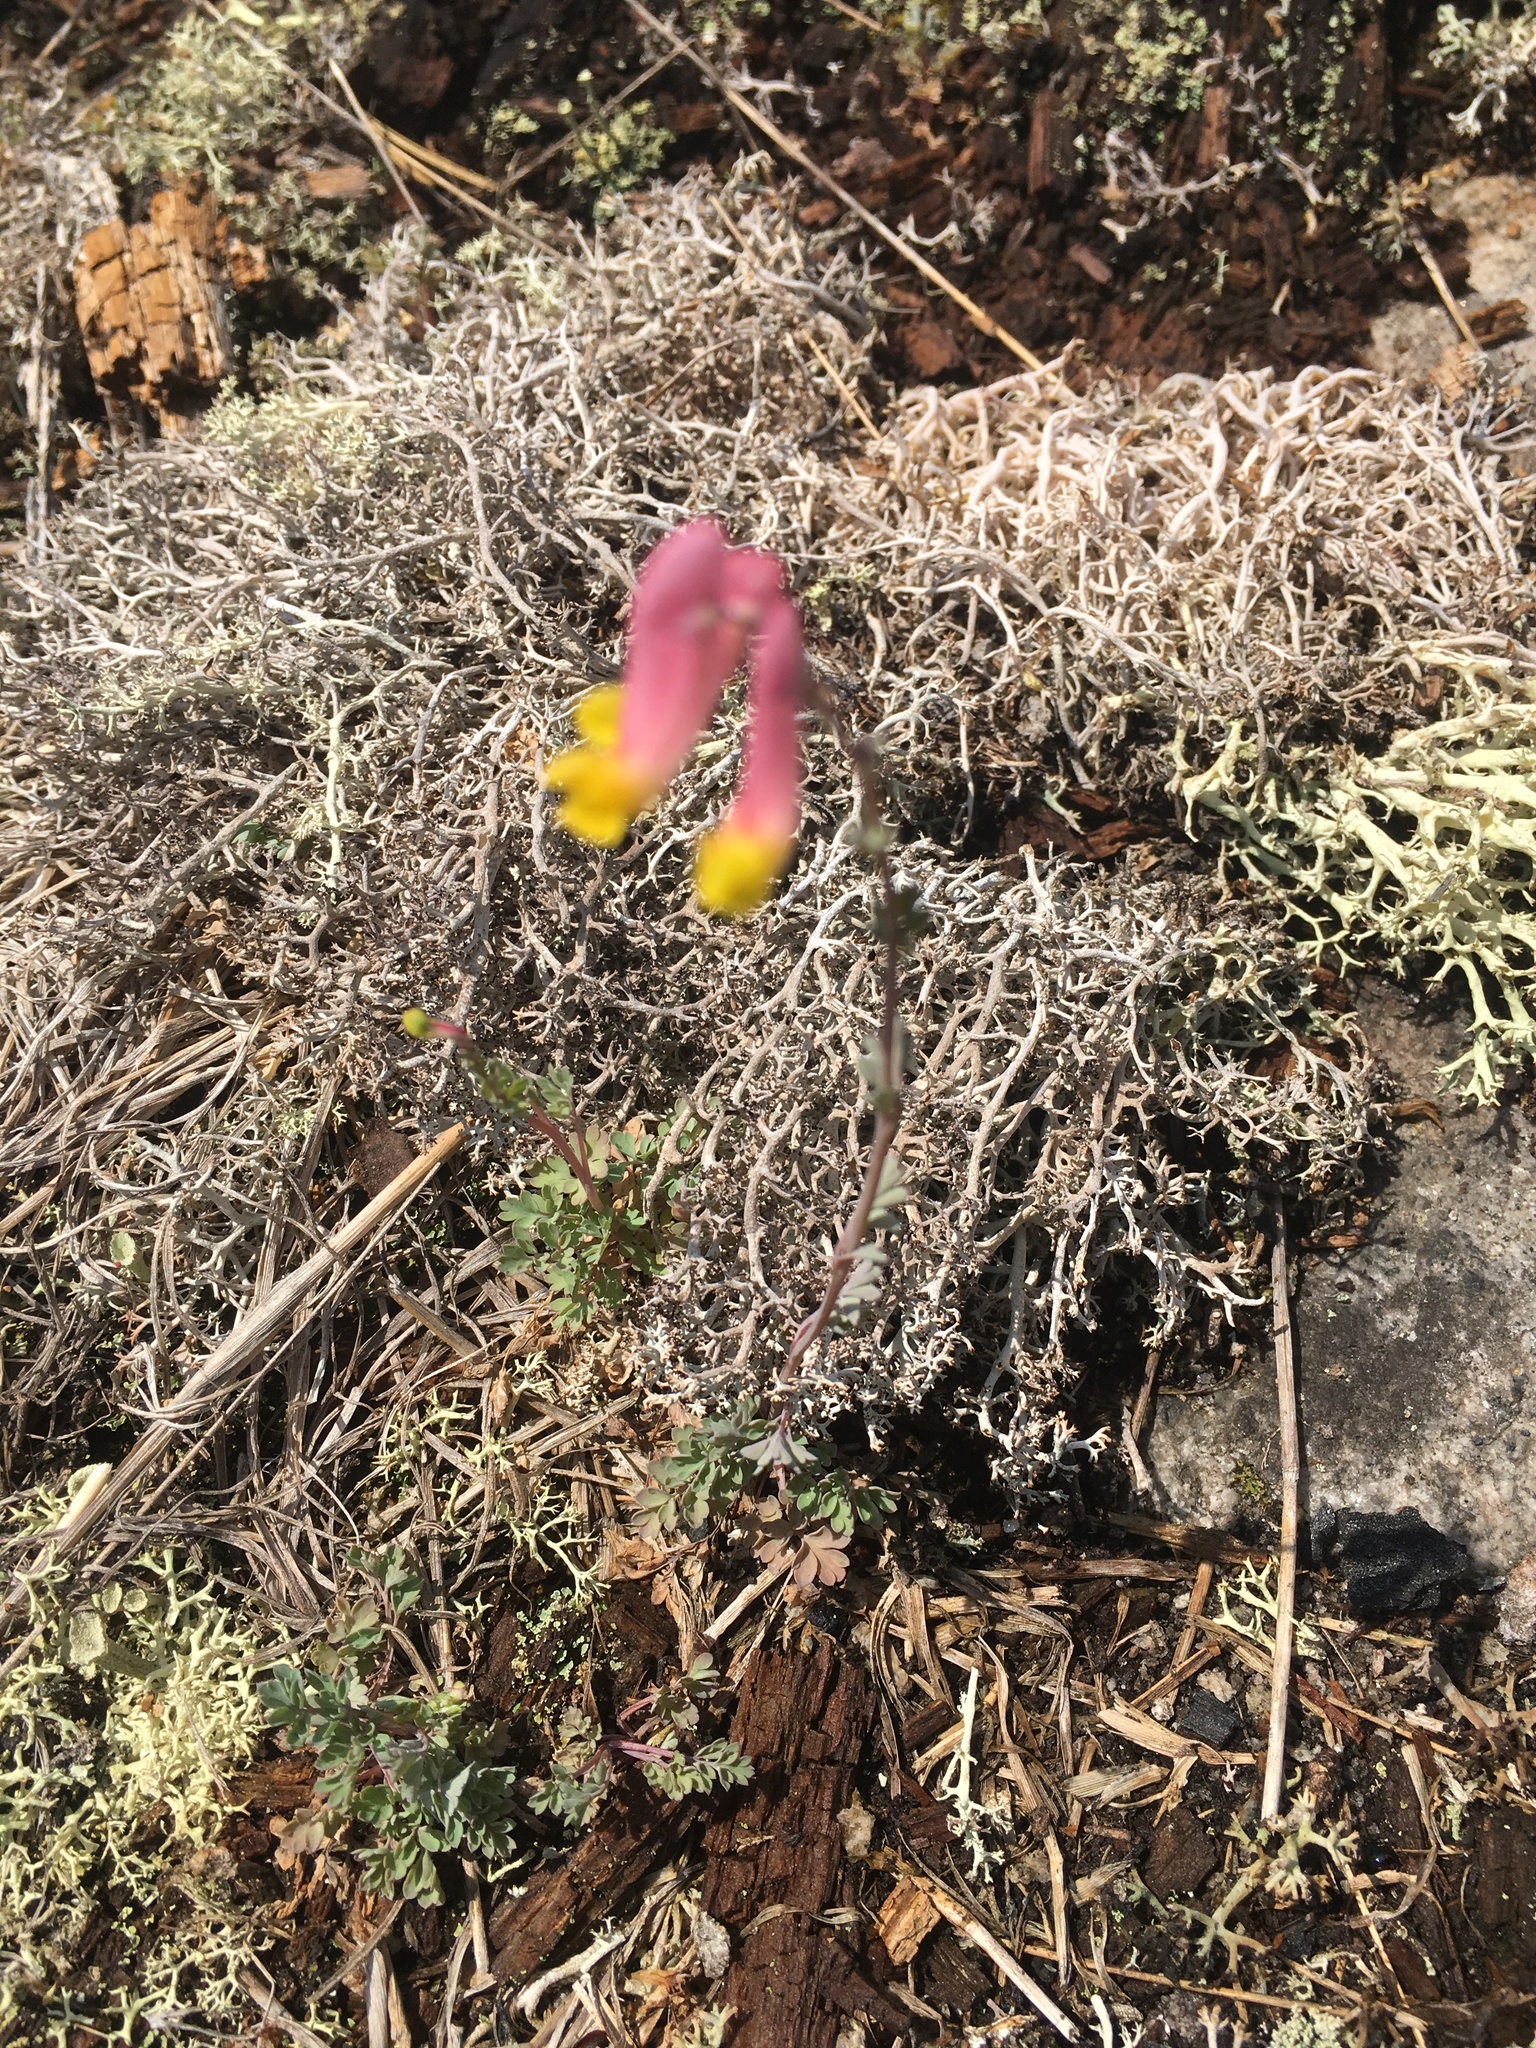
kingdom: Plantae
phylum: Tracheophyta
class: Magnoliopsida
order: Ranunculales
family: Papaveraceae
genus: Capnoides
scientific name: Capnoides sempervirens
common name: Rock harlequin
